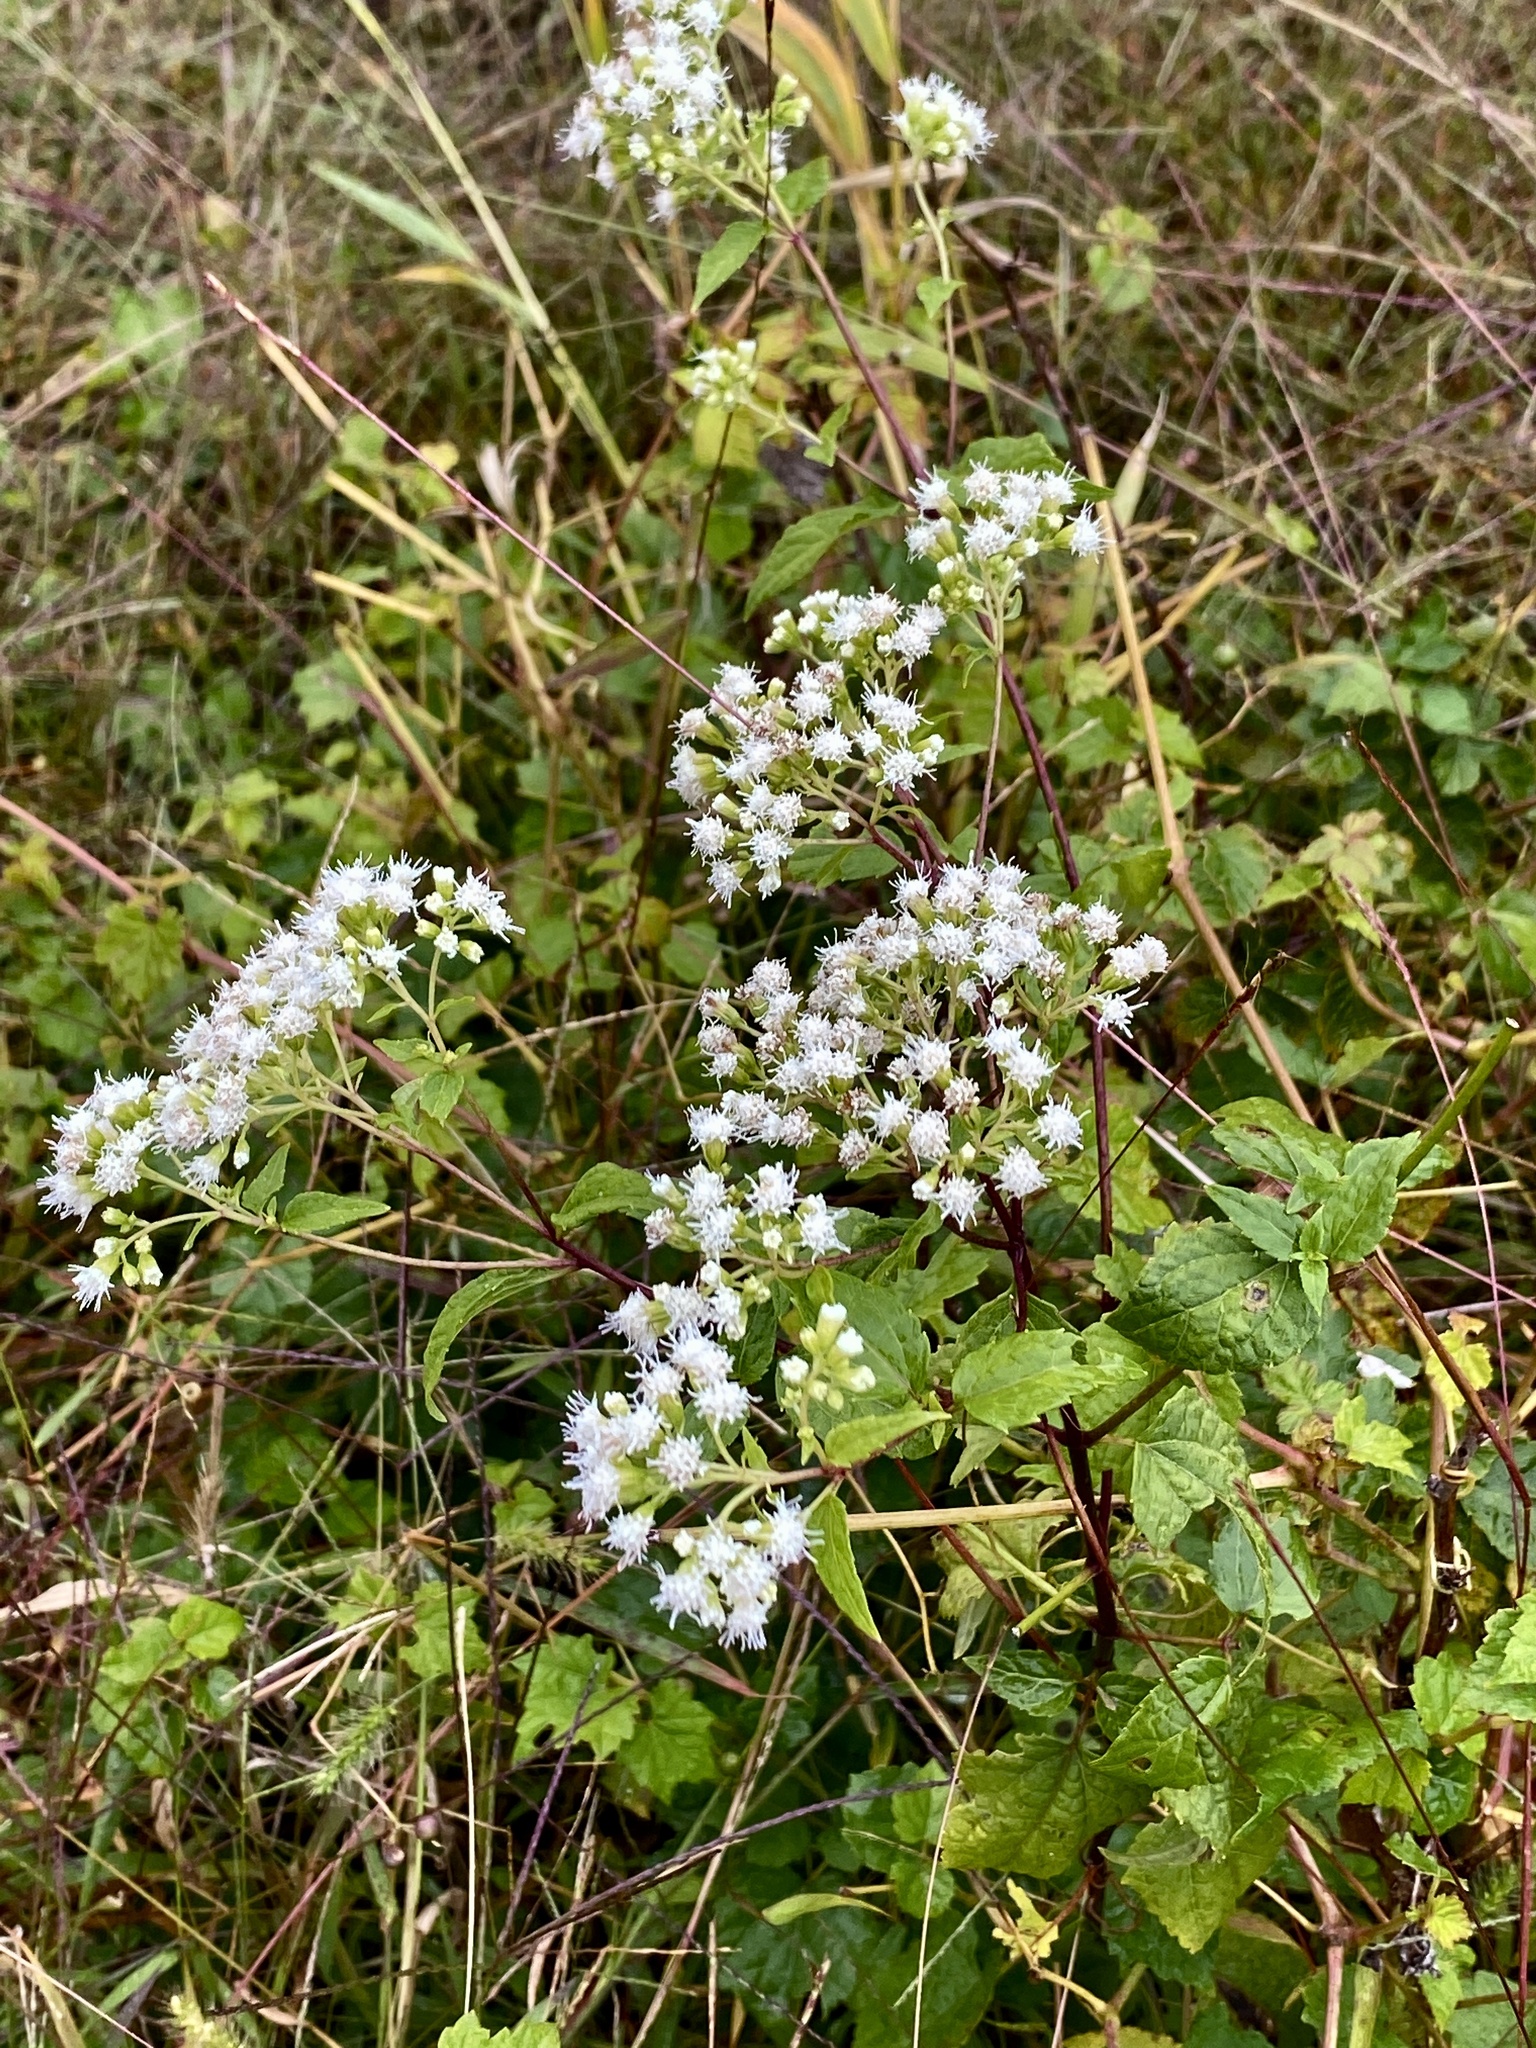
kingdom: Plantae
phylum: Tracheophyta
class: Magnoliopsida
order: Asterales
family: Asteraceae
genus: Ageratina
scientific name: Ageratina altissima
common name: White snakeroot
